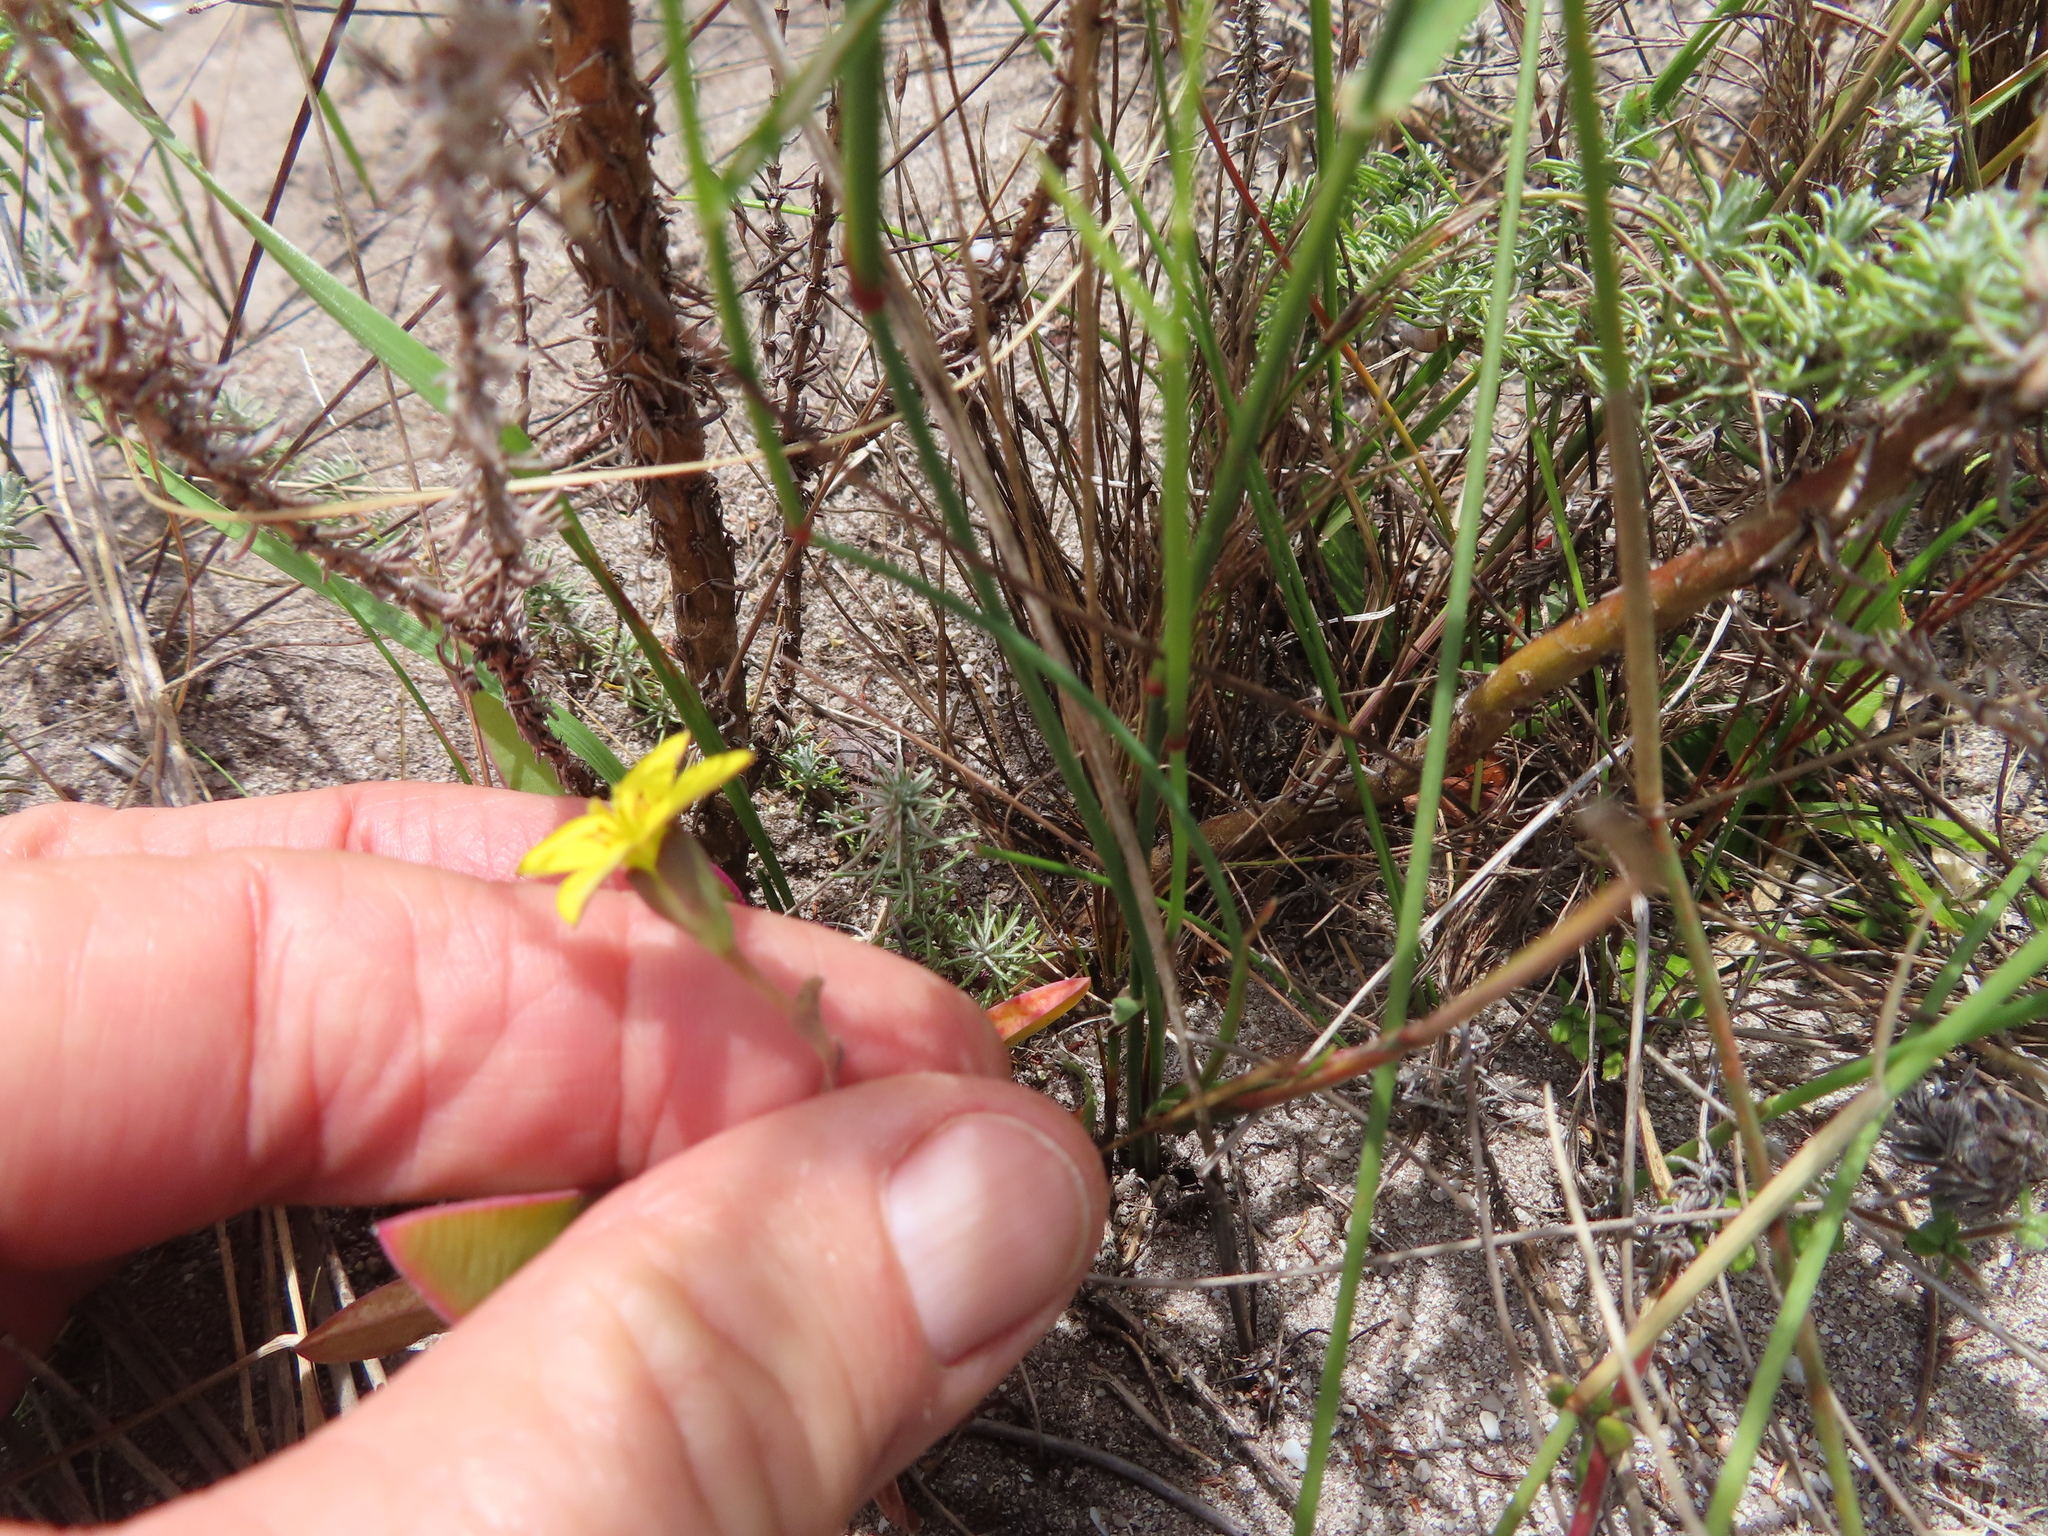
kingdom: Plantae
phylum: Tracheophyta
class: Magnoliopsida
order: Saxifragales
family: Crassulaceae
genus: Crassula
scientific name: Crassula dichotoma
